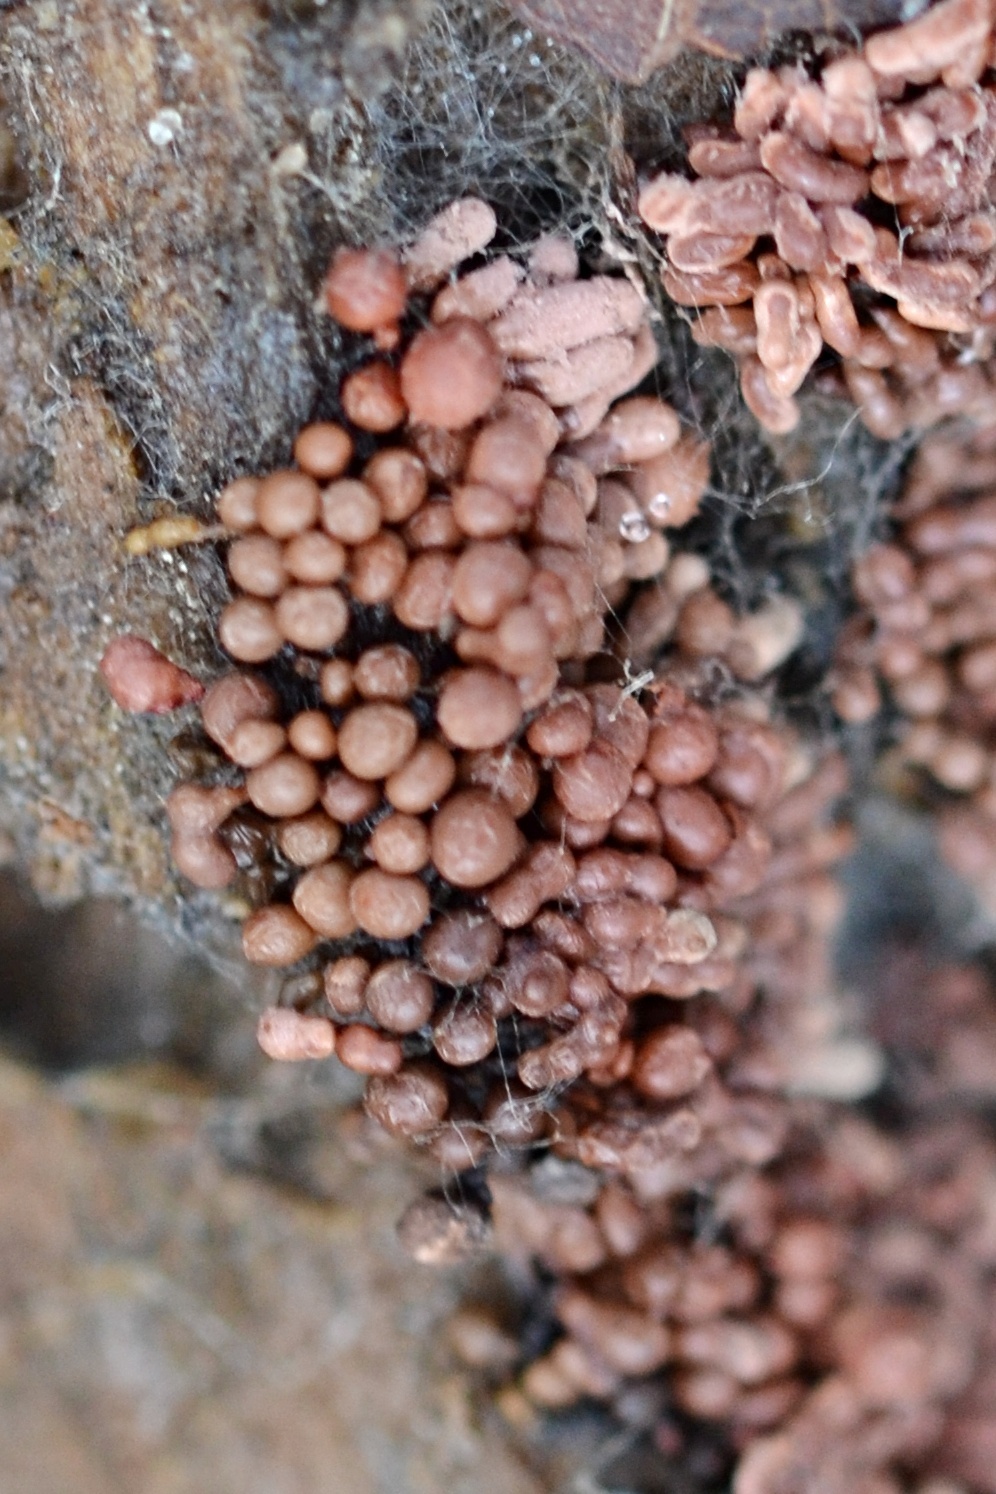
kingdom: Protozoa
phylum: Mycetozoa
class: Myxomycetes
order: Trichiales
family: Arcyriaceae
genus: Arcyria
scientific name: Arcyria stipata
